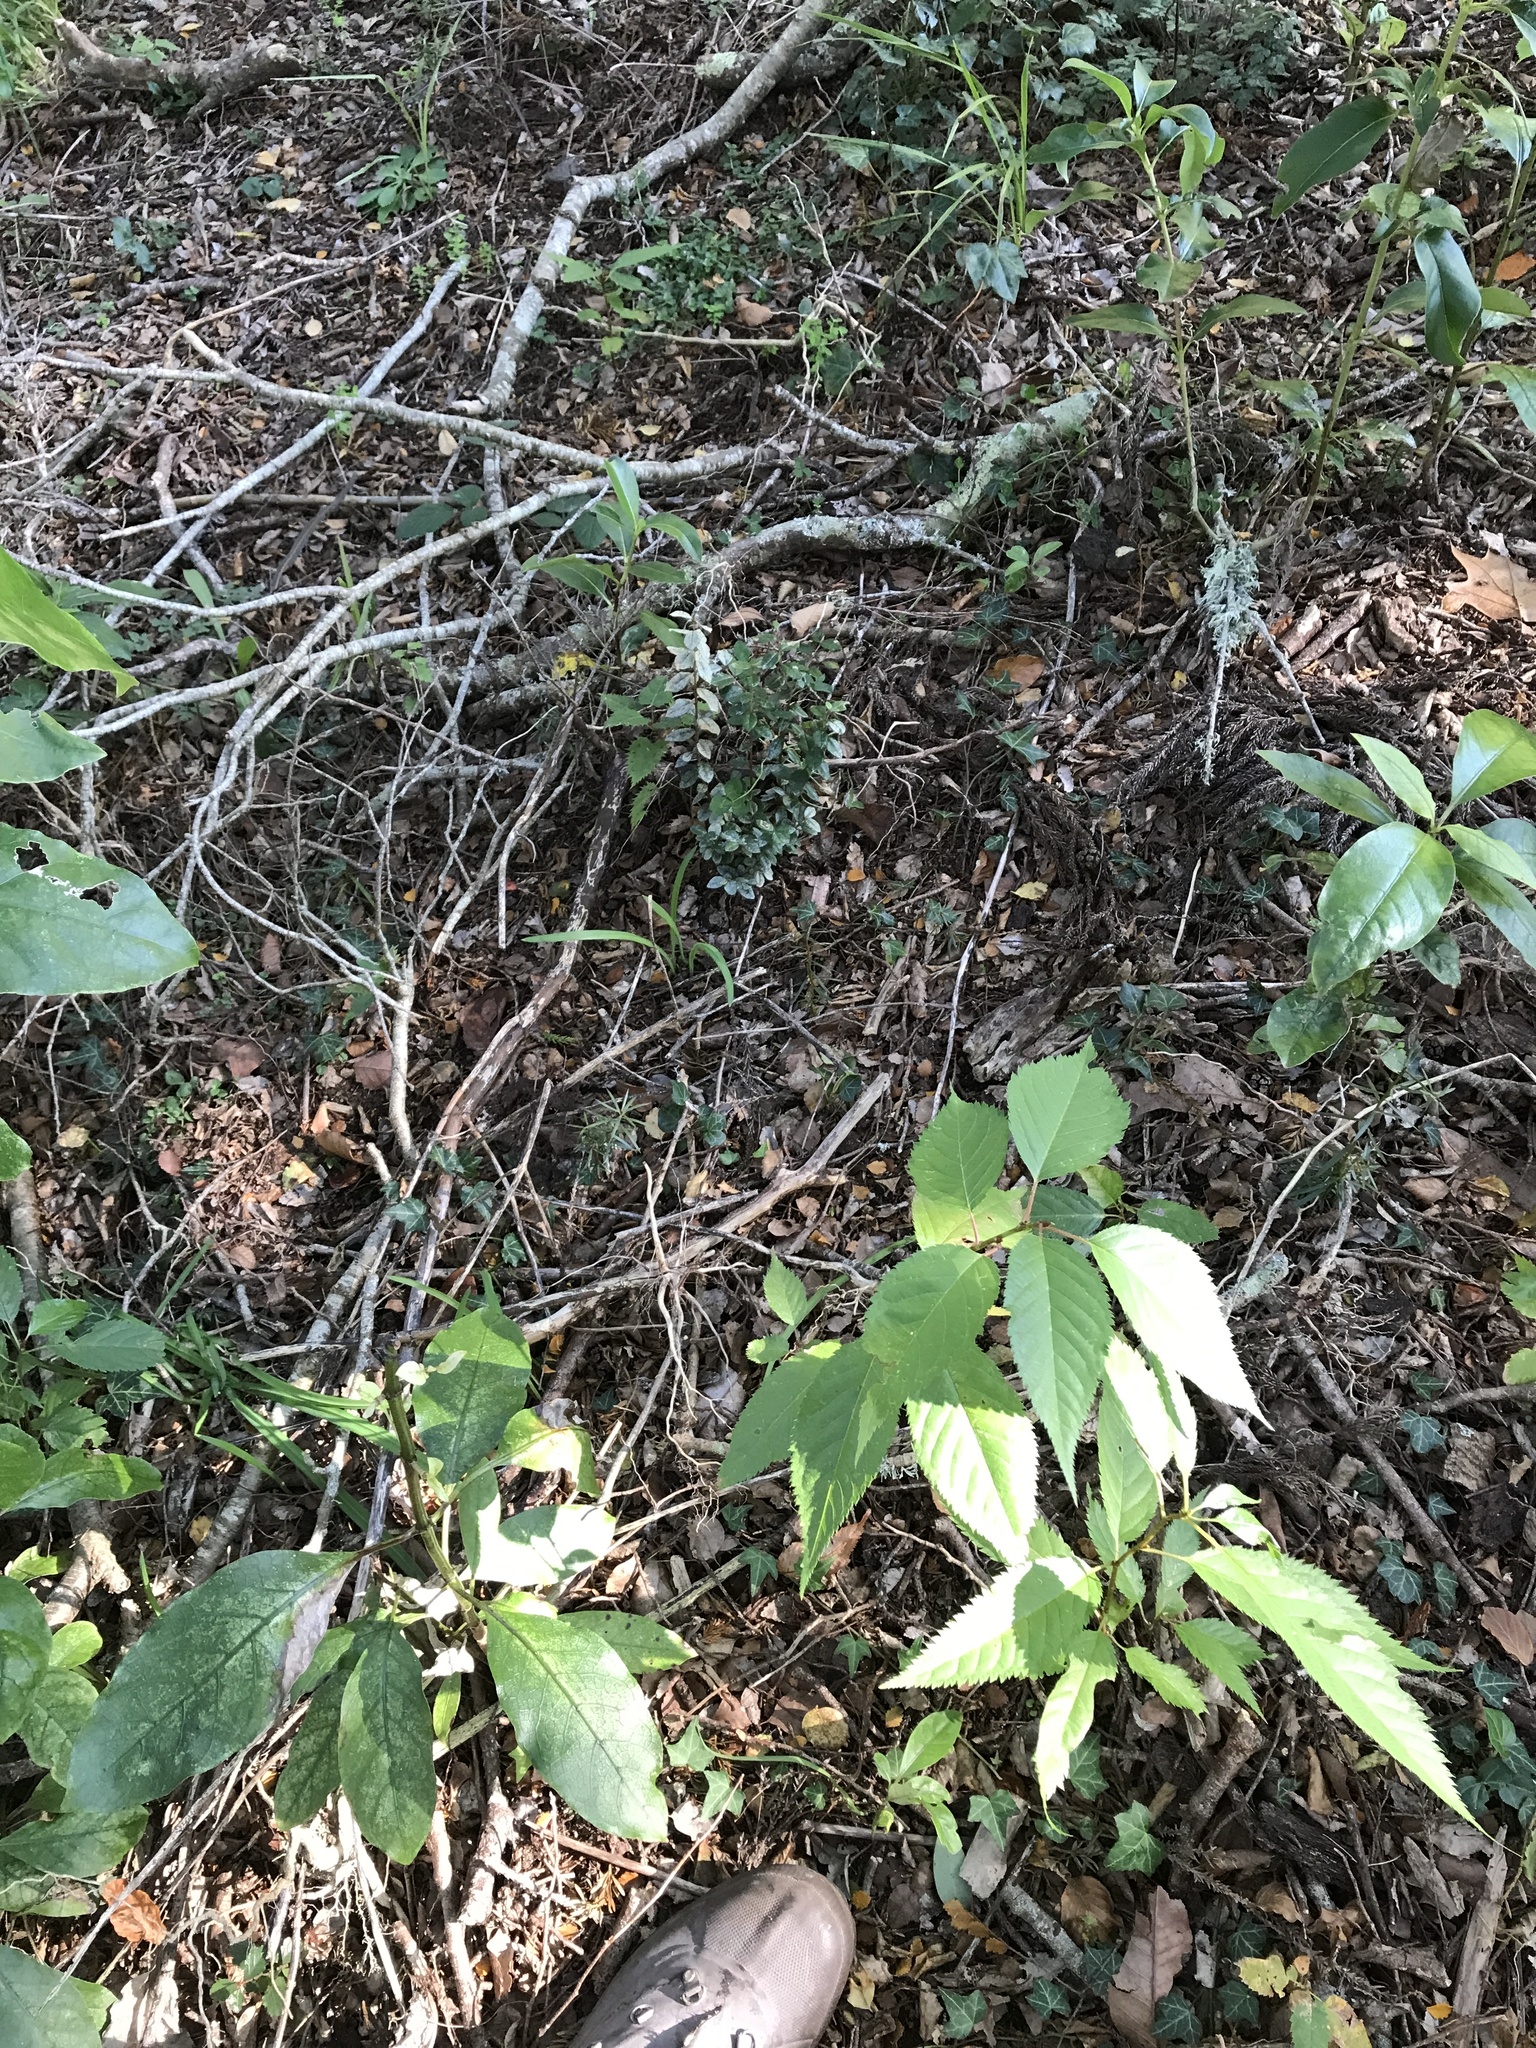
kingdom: Plantae
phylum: Tracheophyta
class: Magnoliopsida
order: Myrtales
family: Myrtaceae
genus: Luma
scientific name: Luma apiculata
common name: Chilean myrtle
